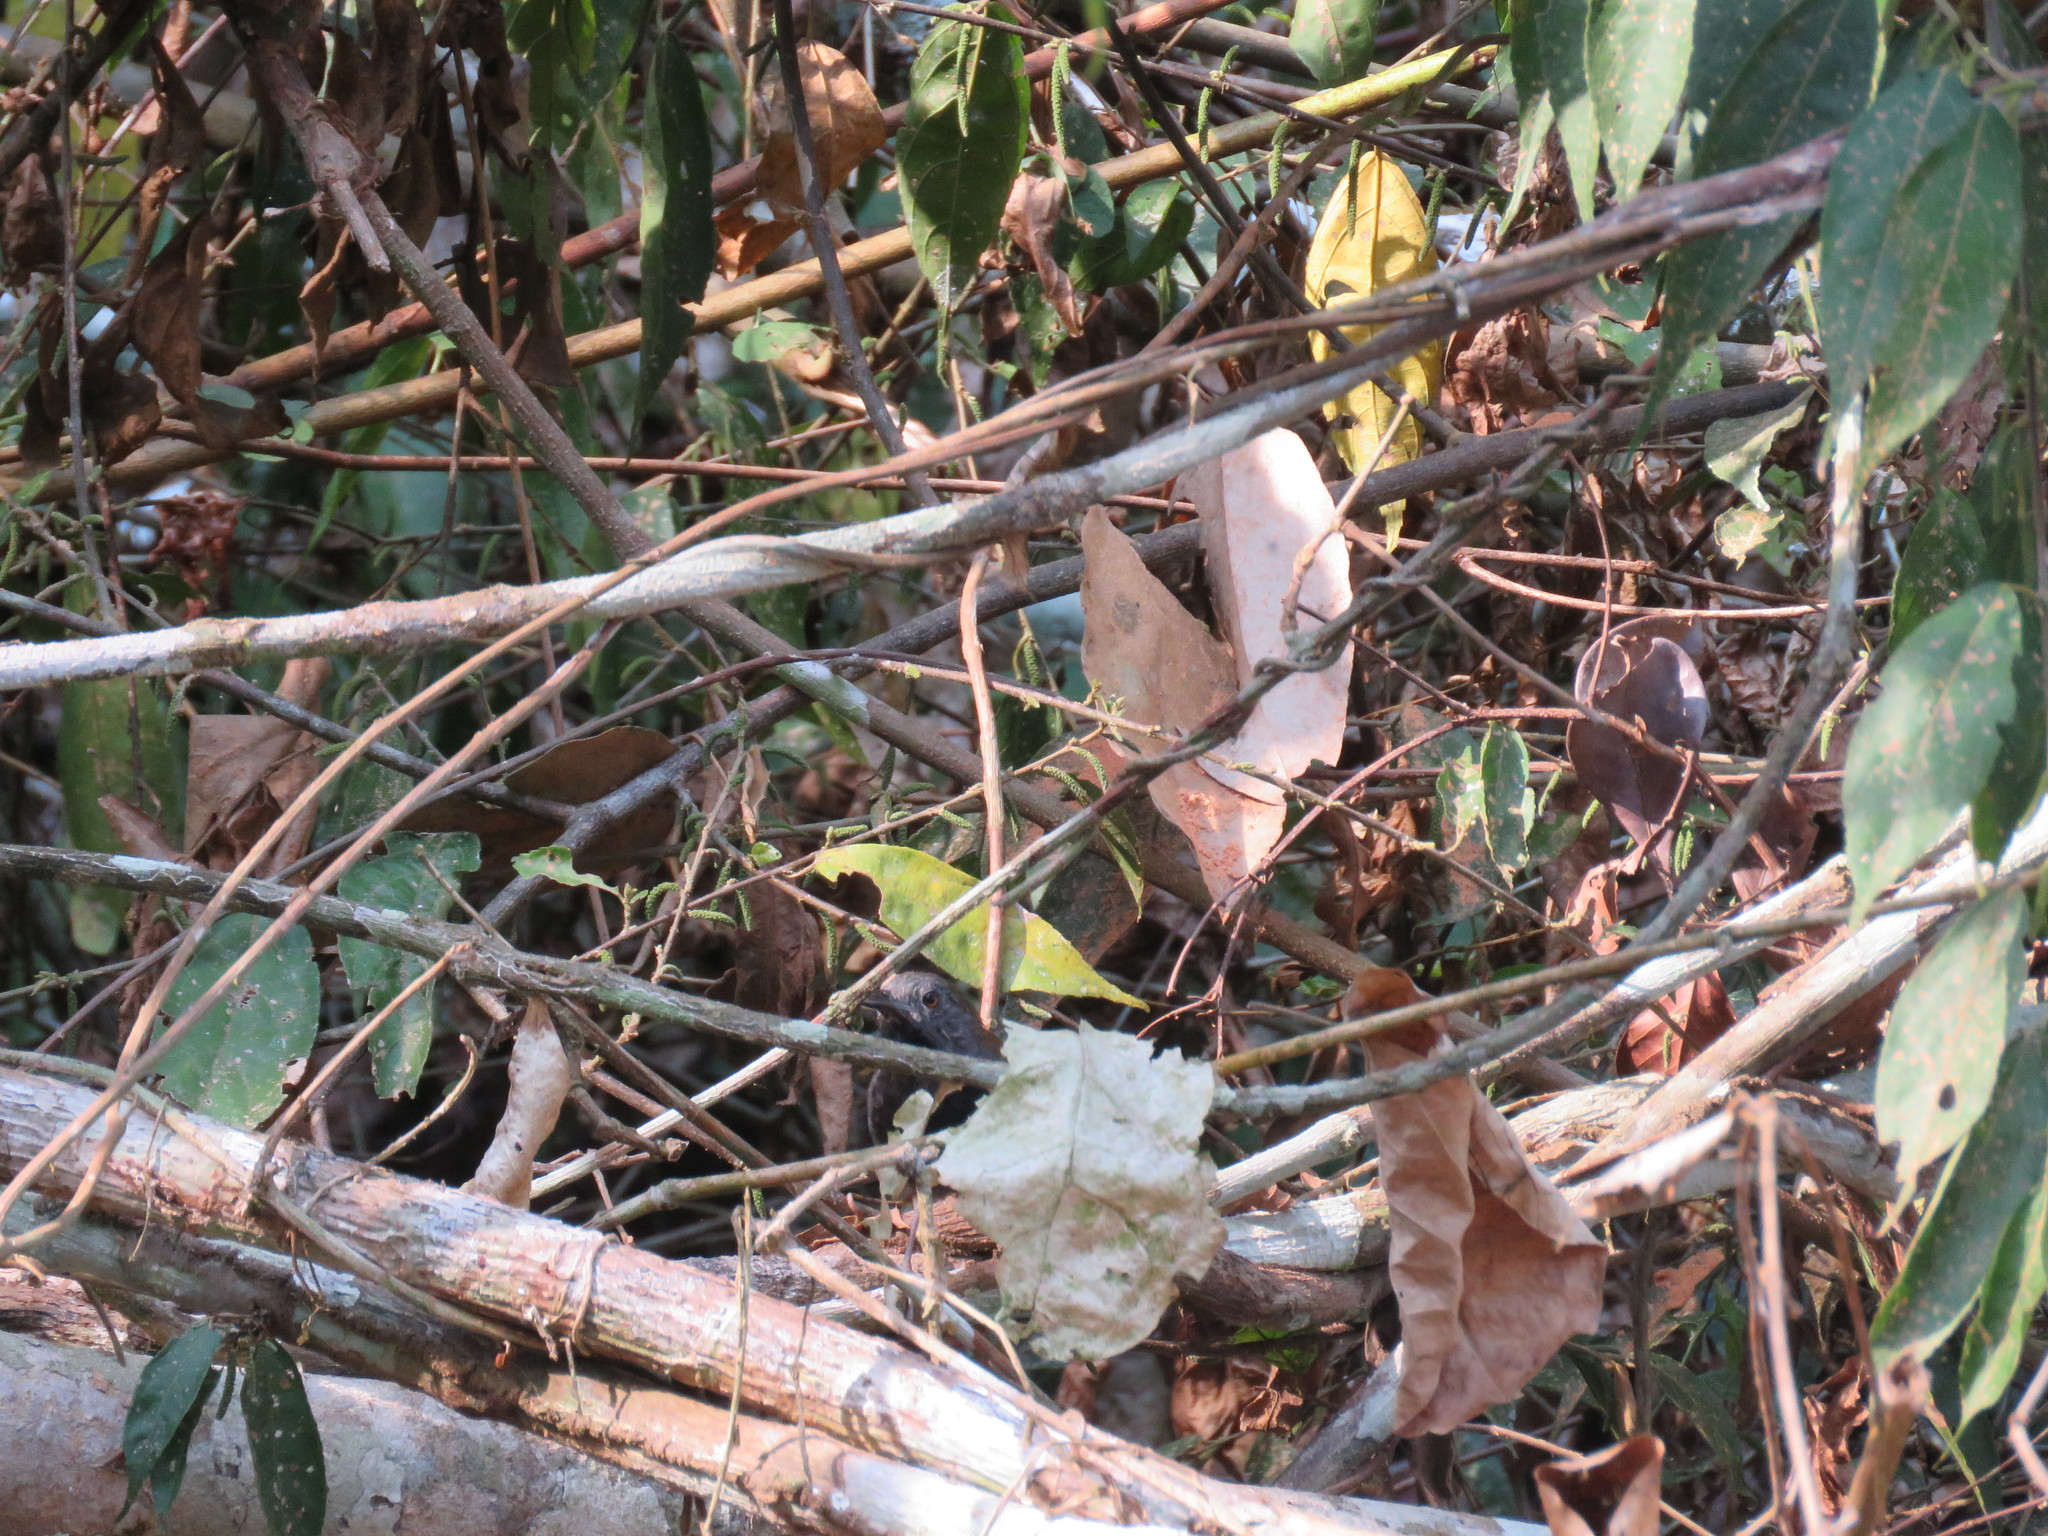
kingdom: Animalia
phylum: Chordata
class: Aves
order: Passeriformes
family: Thamnophilidae
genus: Myrmeciza
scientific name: Myrmeciza atrothorax
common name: Black-throated antbird
